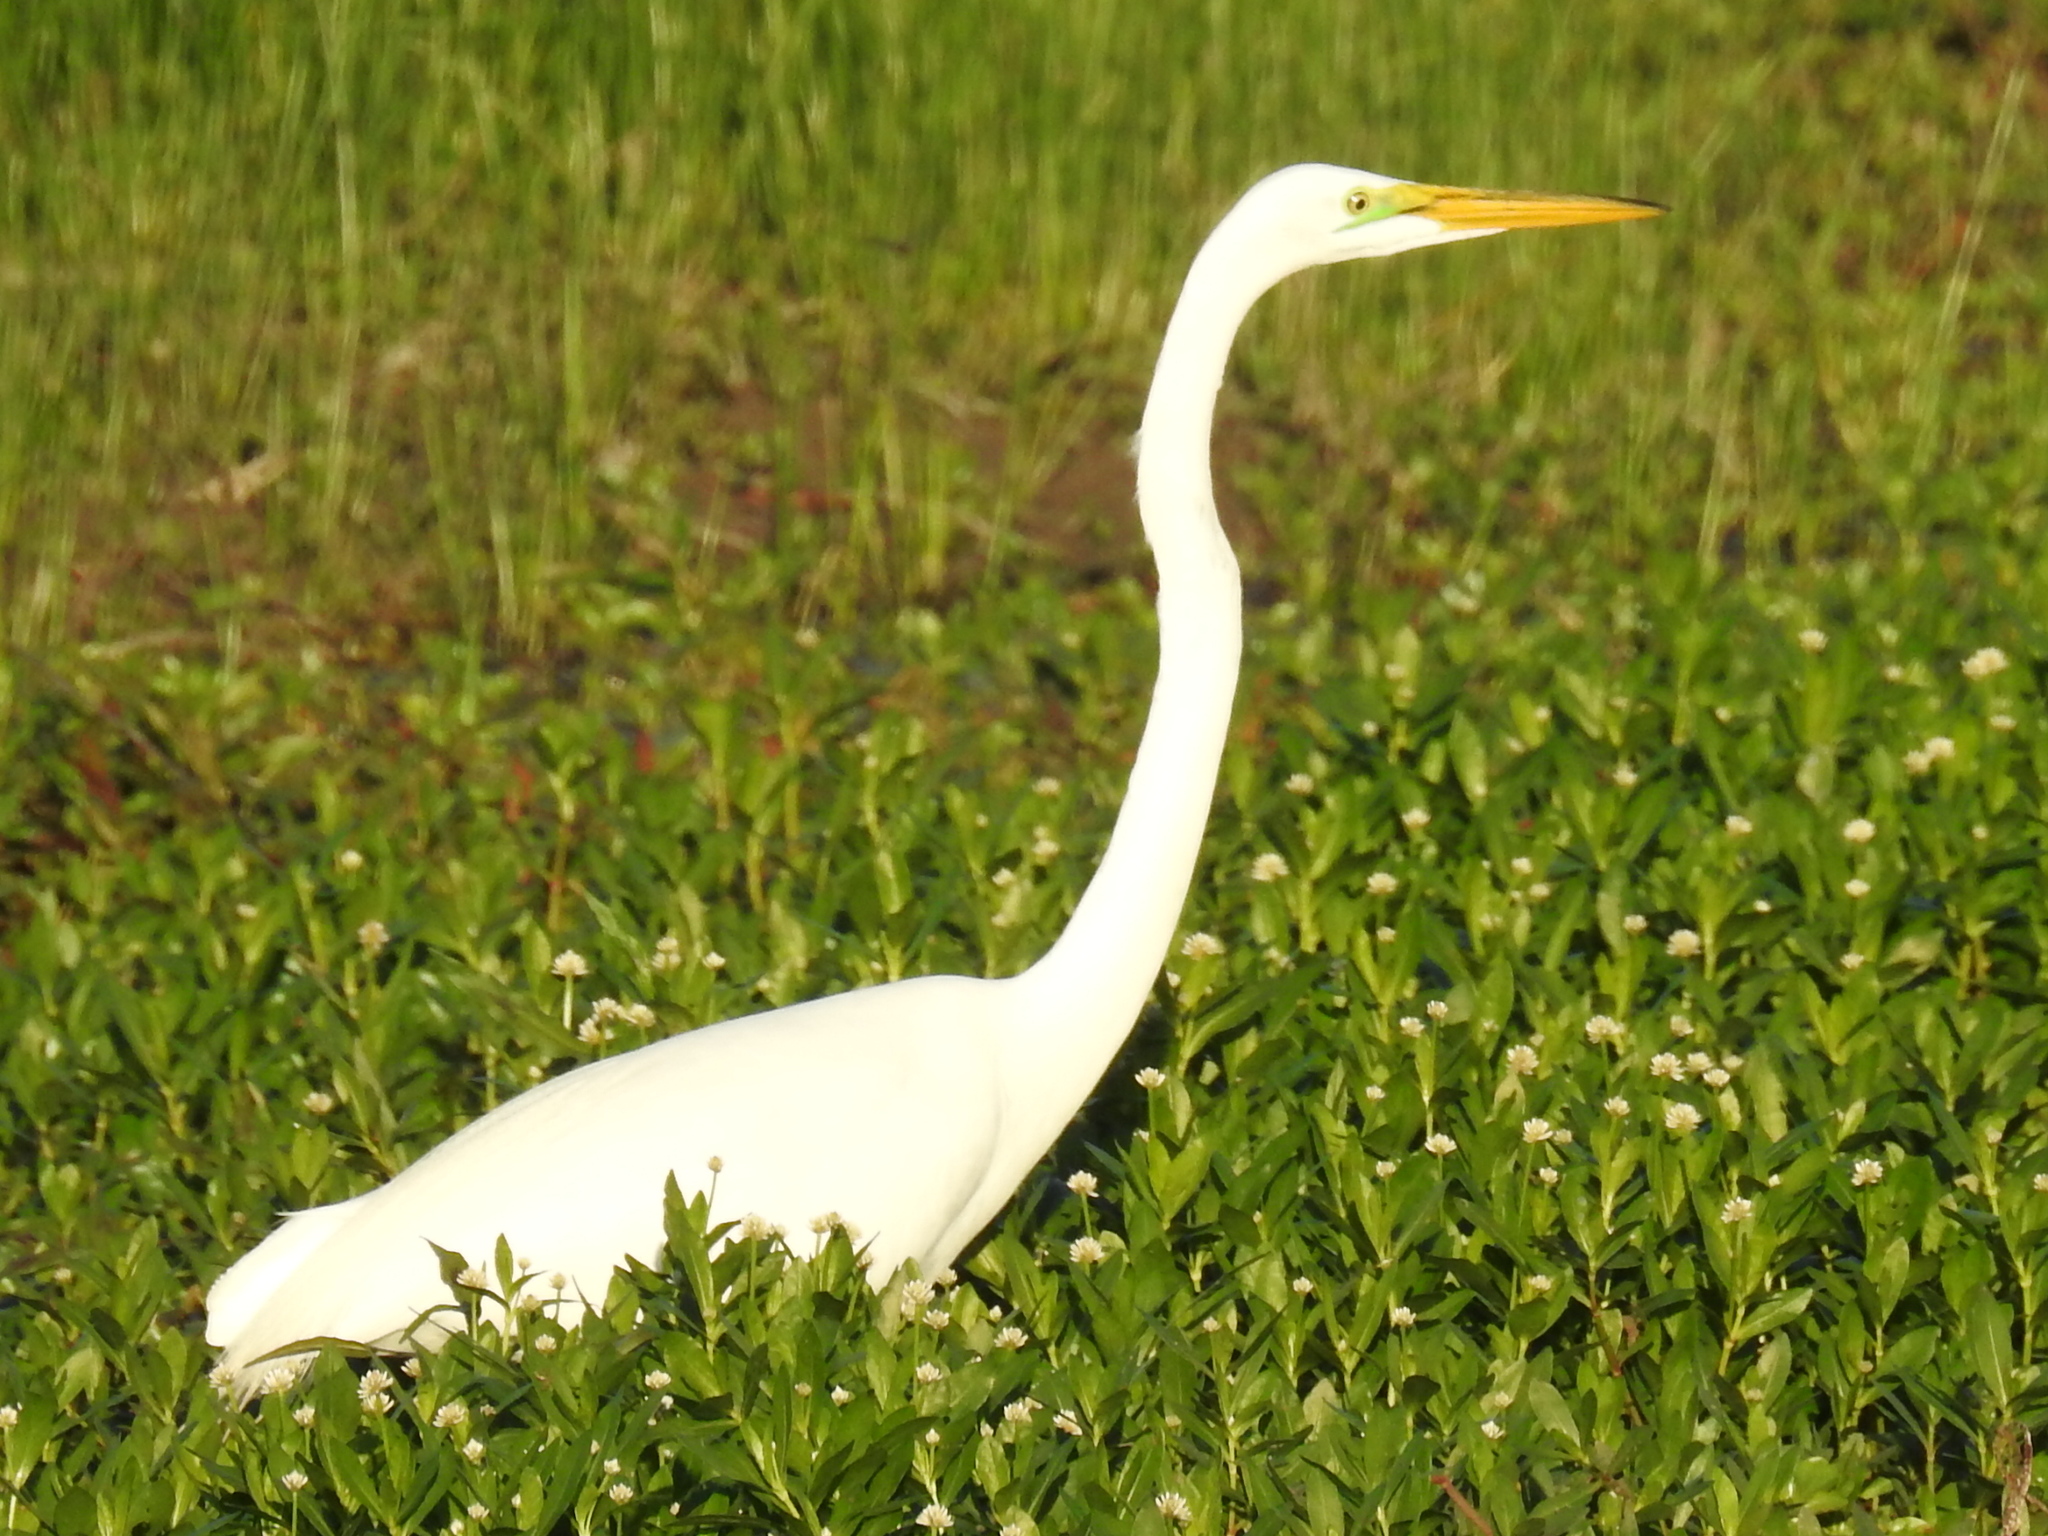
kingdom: Animalia
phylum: Chordata
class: Aves
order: Pelecaniformes
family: Ardeidae
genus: Ardea
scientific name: Ardea alba
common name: Great egret
